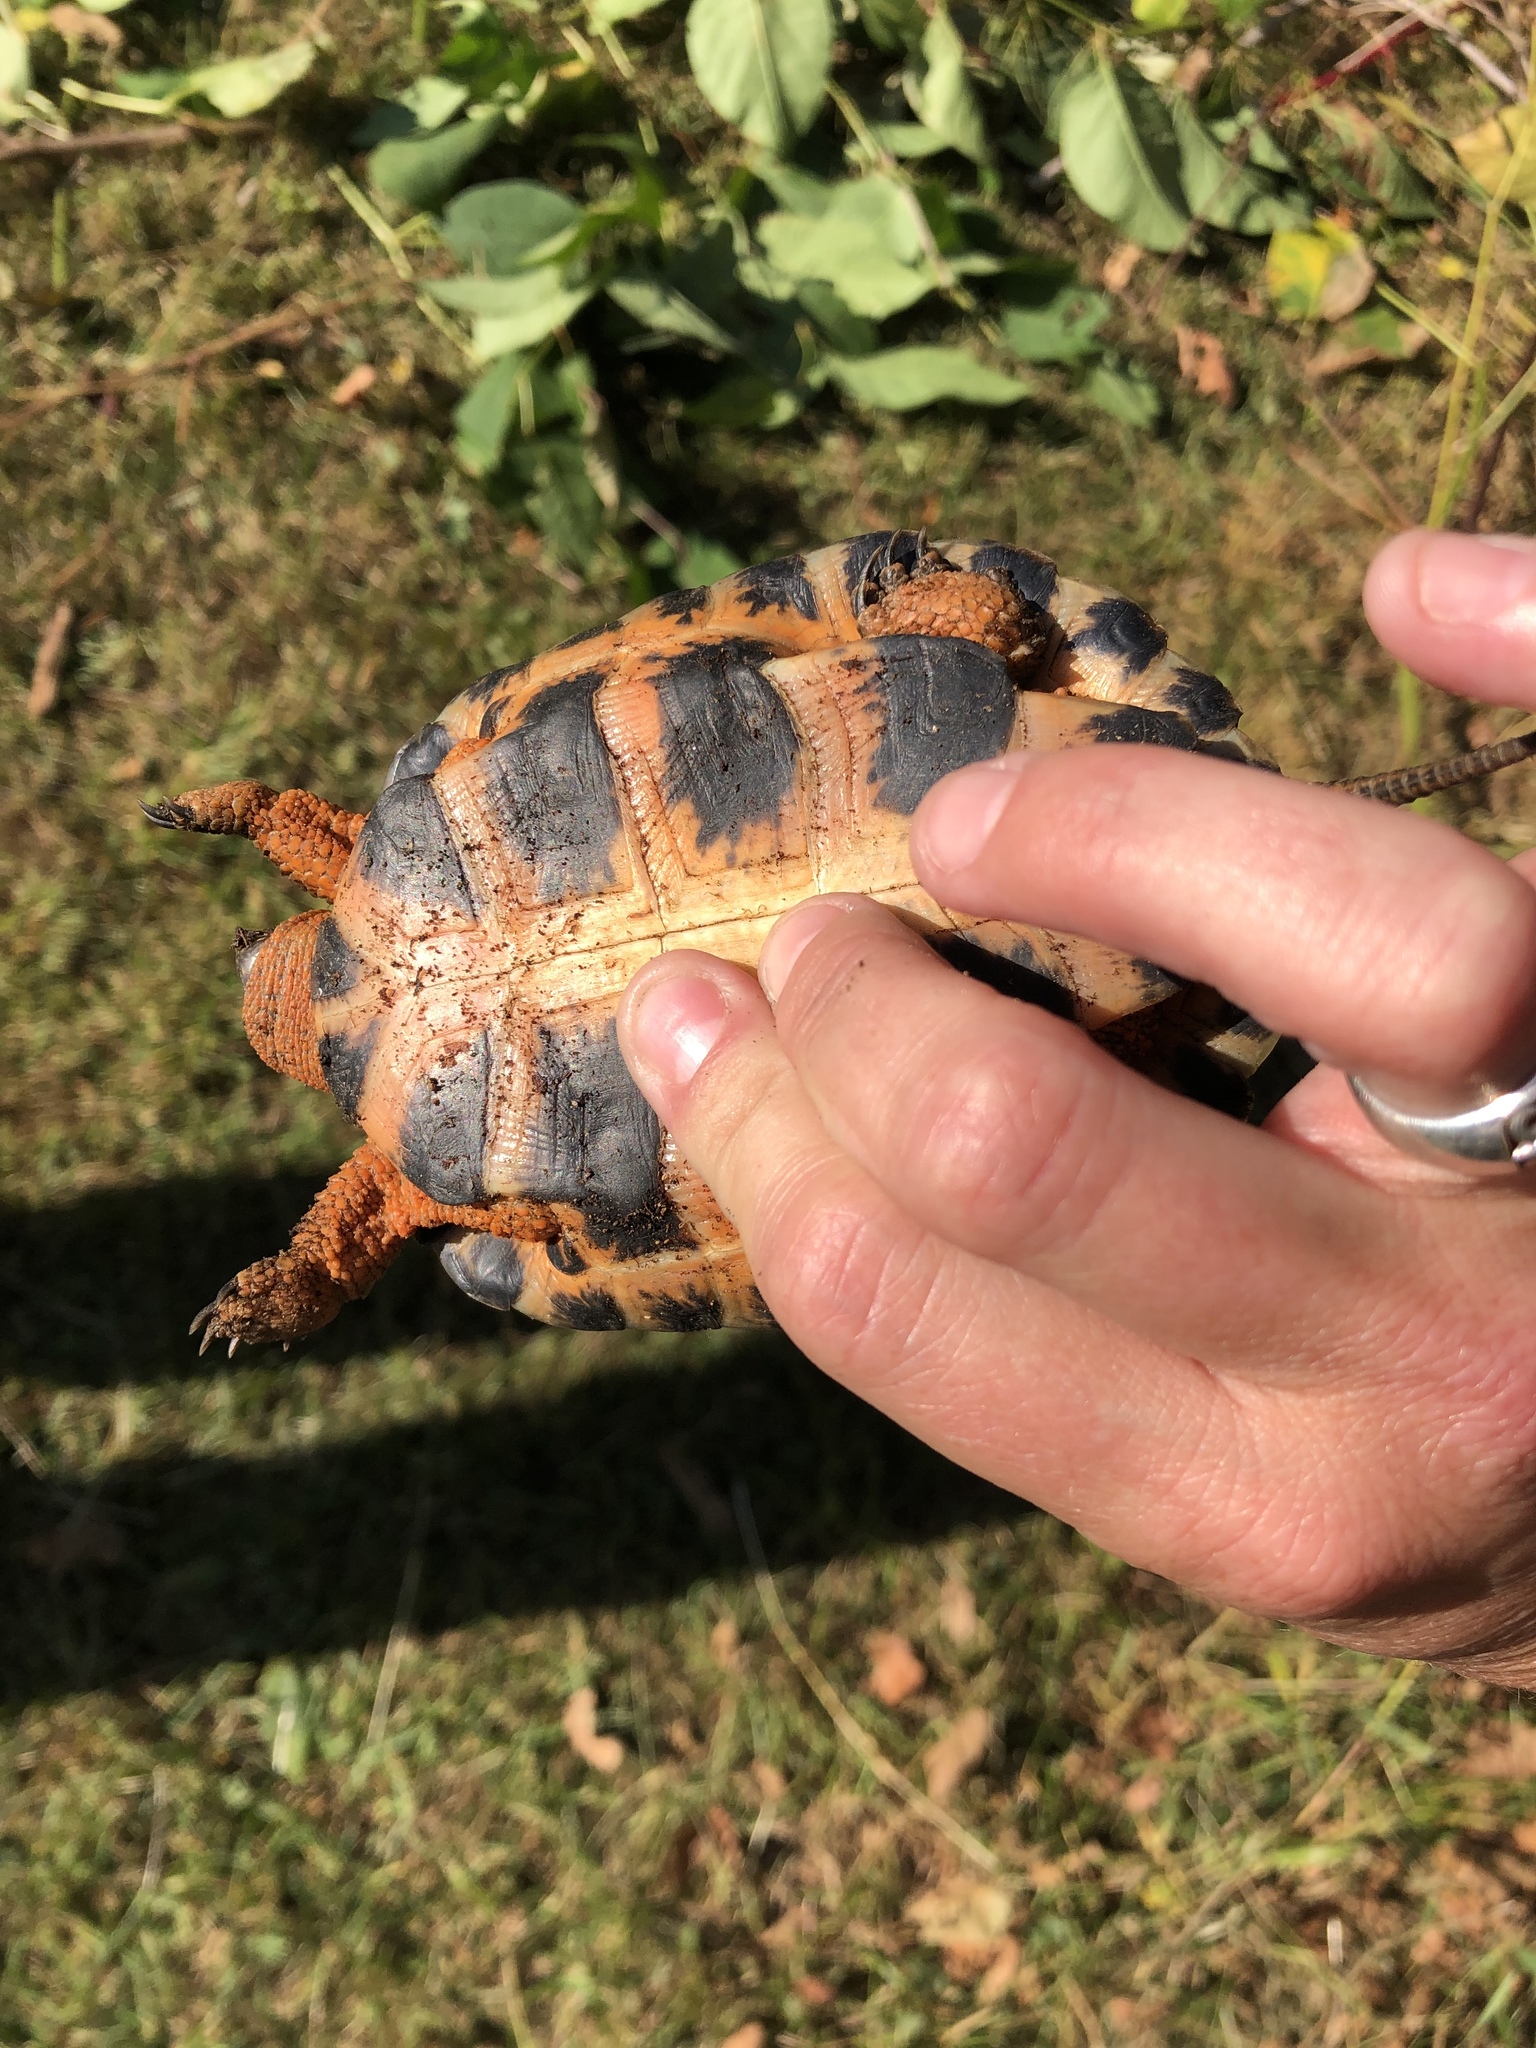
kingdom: Animalia
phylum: Chordata
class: Testudines
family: Emydidae
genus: Glyptemys
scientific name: Glyptemys insculpta
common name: Wood turtle
